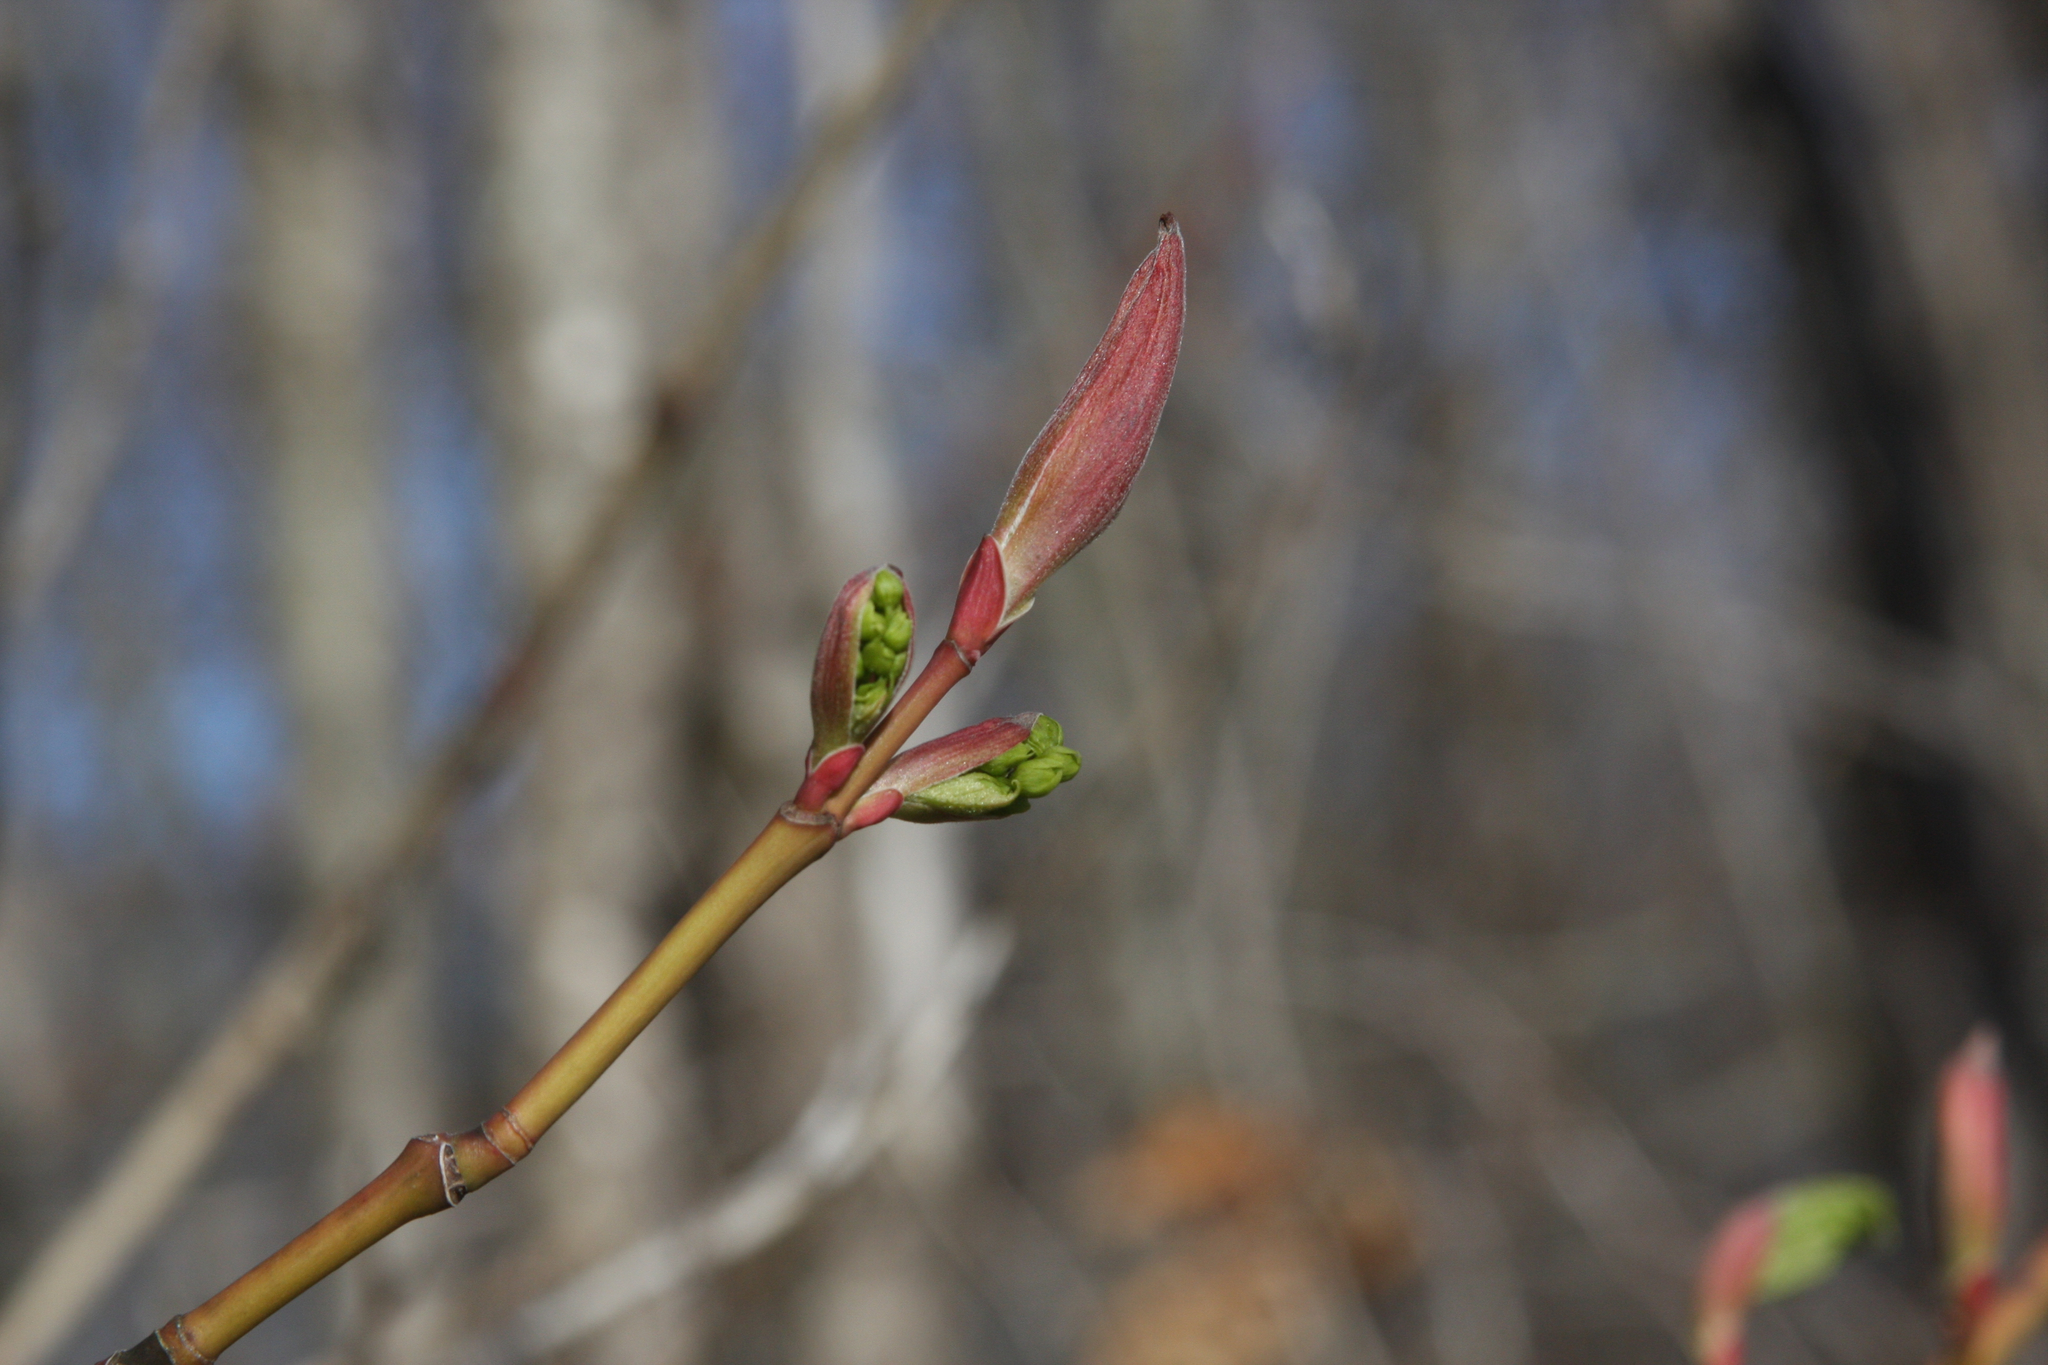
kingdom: Plantae
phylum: Tracheophyta
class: Magnoliopsida
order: Sapindales
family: Sapindaceae
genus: Acer
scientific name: Acer pensylvanicum
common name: Moosewood
